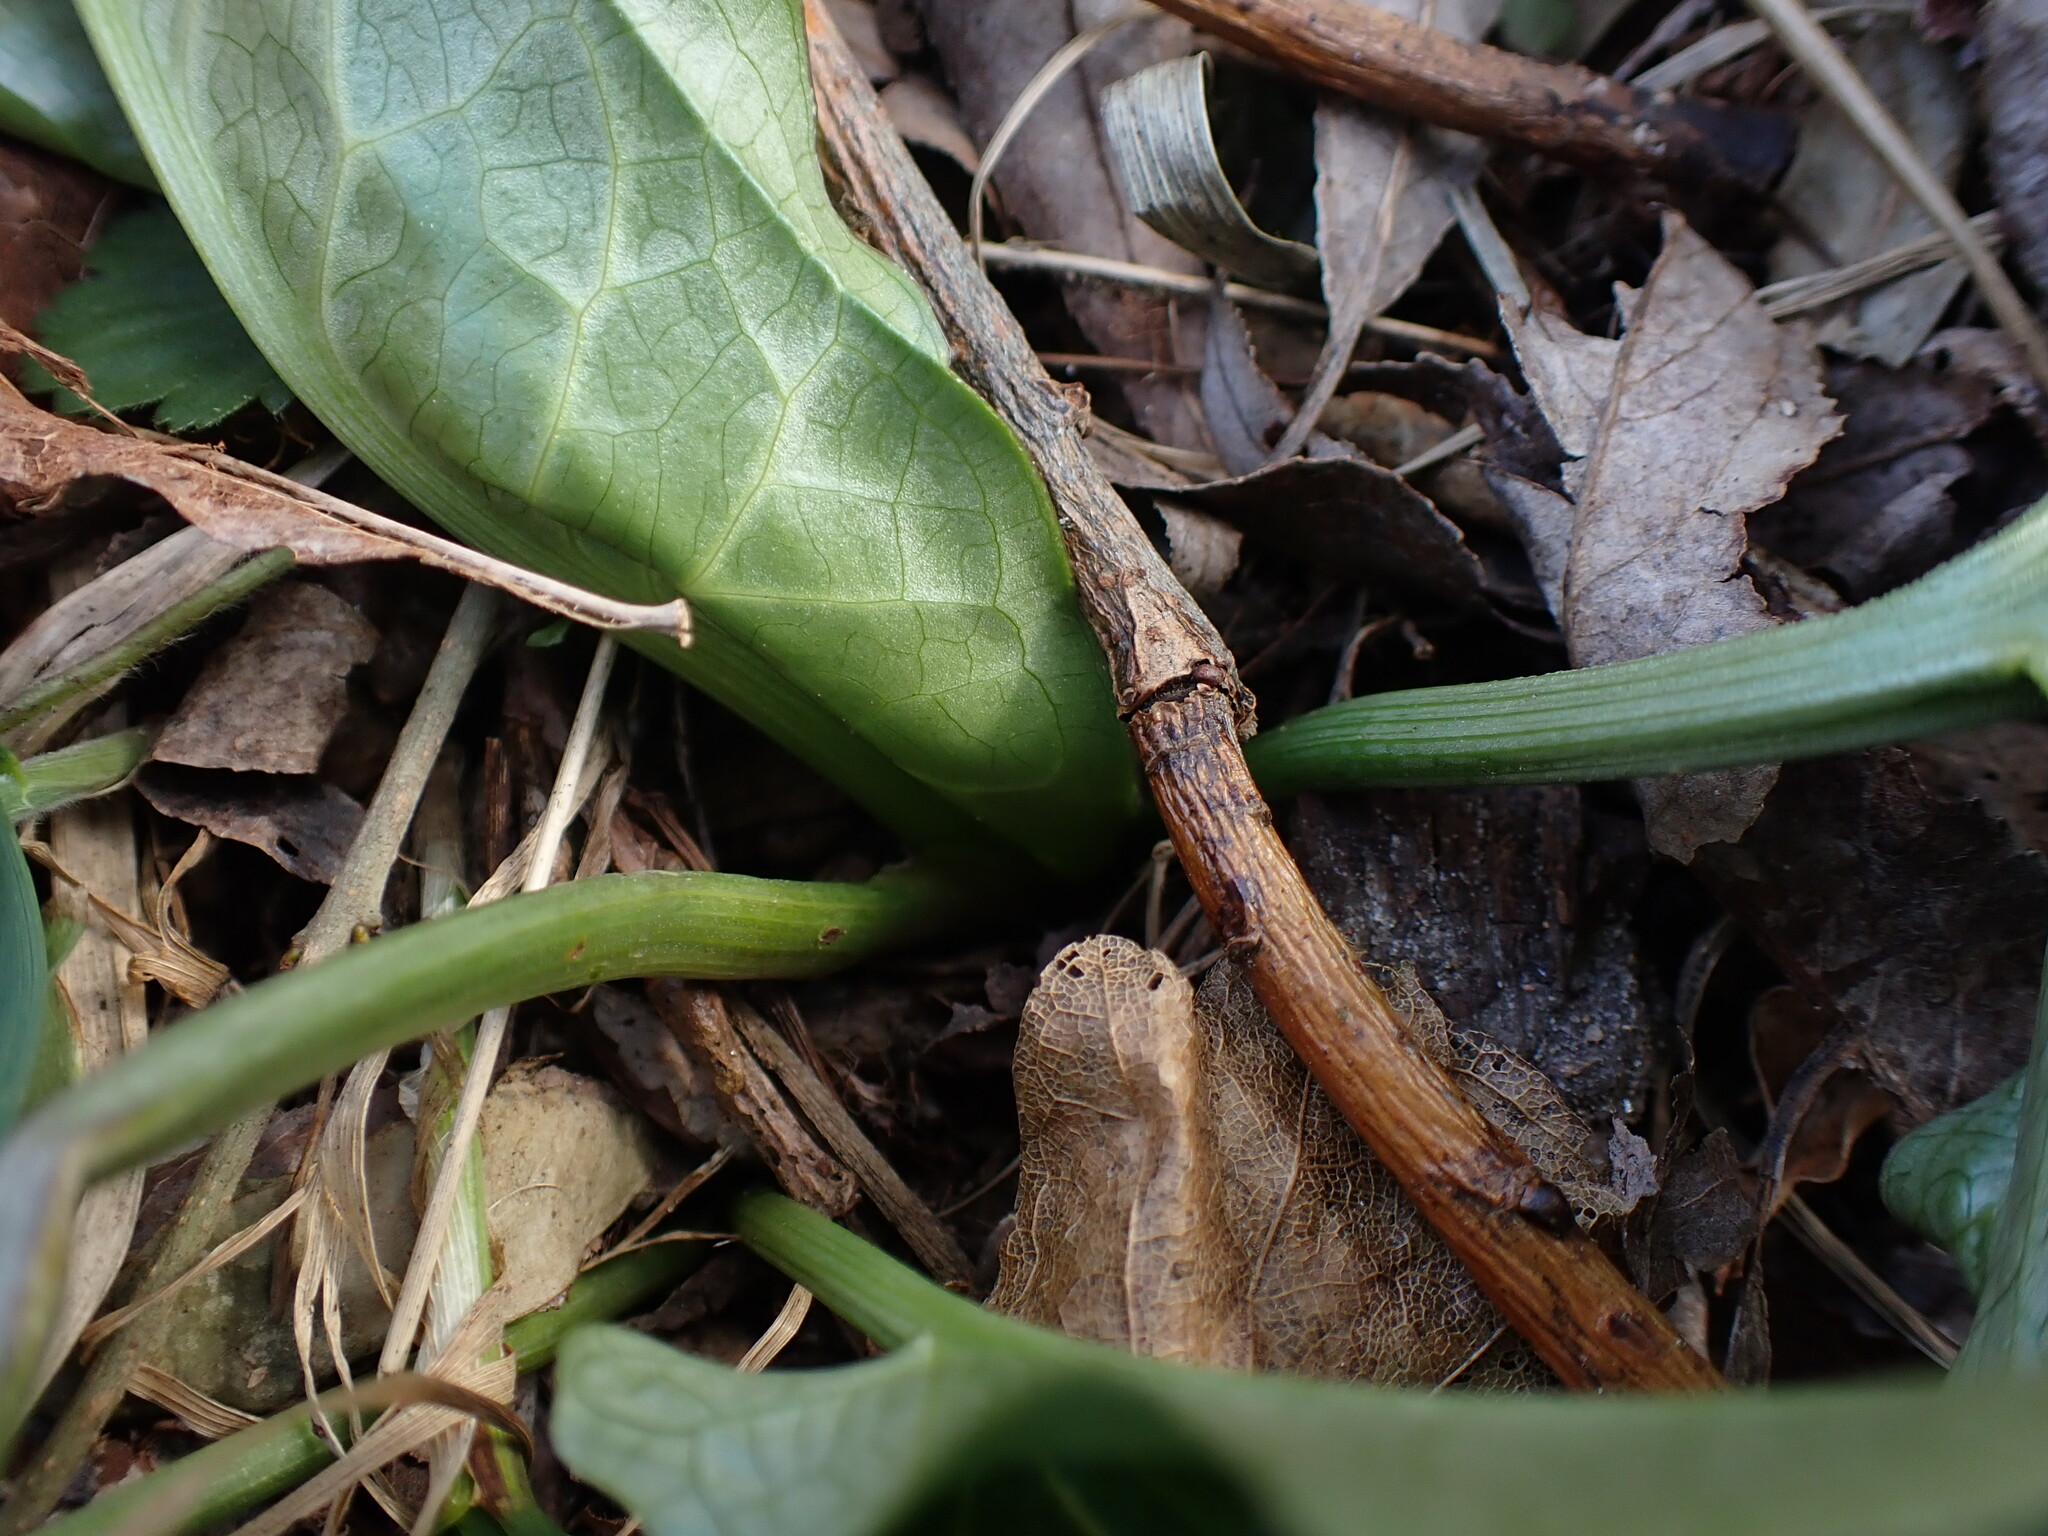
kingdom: Plantae
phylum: Tracheophyta
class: Liliopsida
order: Alismatales
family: Araceae
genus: Arum
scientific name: Arum italicum
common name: Italian lords-and-ladies
